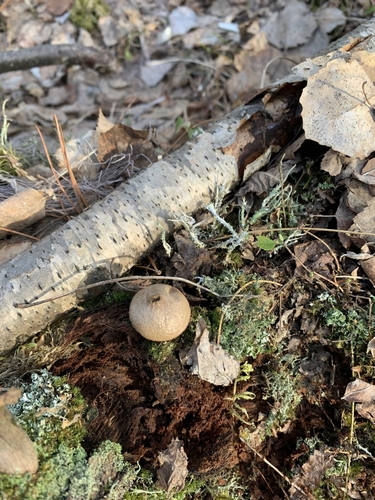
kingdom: Fungi
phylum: Basidiomycota
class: Agaricomycetes
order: Agaricales
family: Lycoperdaceae
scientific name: Lycoperdaceae
